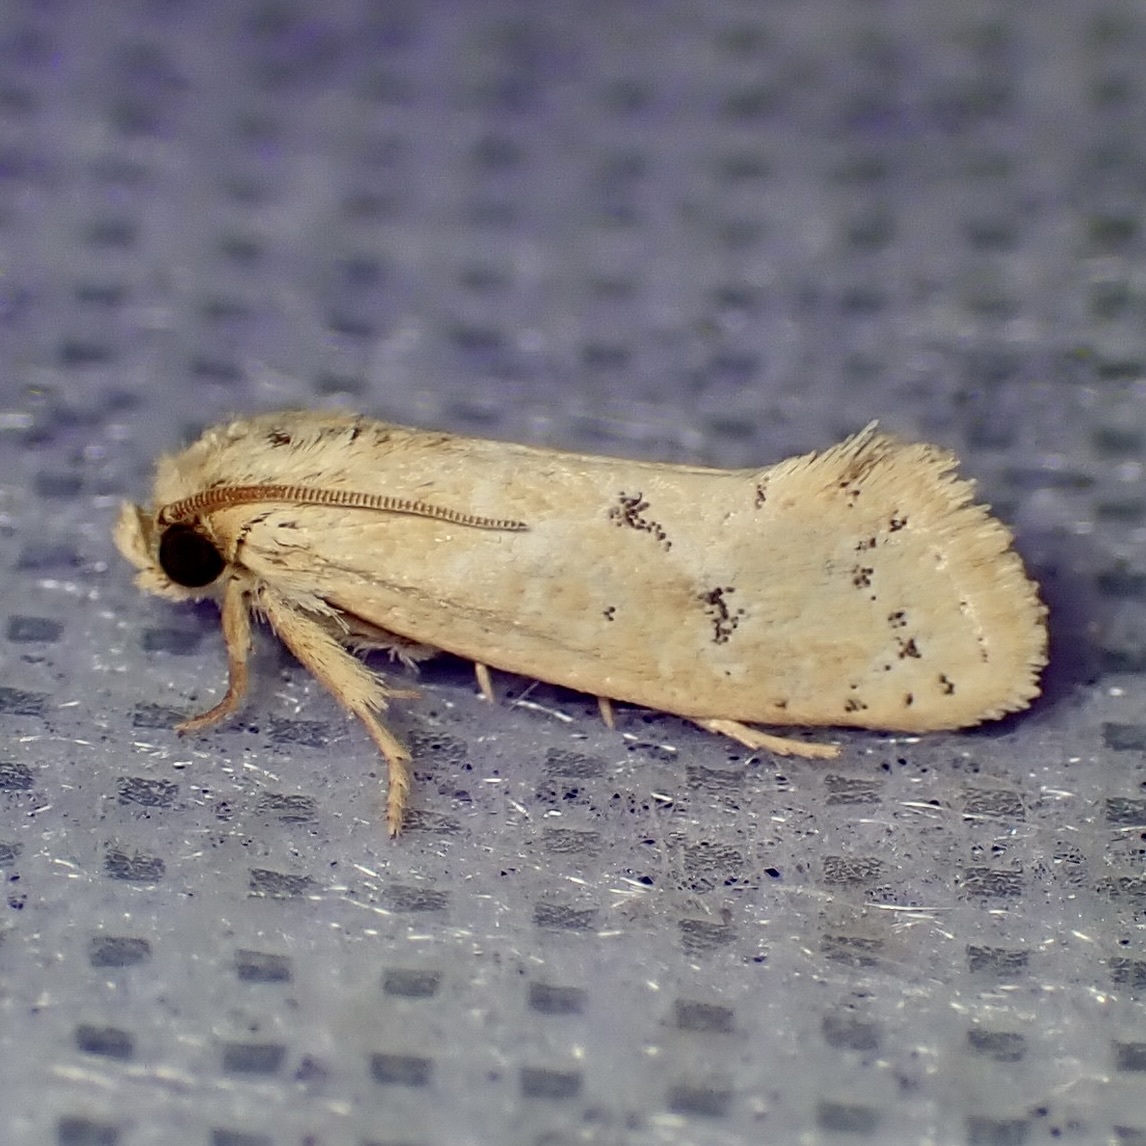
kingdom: Animalia
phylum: Arthropoda
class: Insecta
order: Lepidoptera
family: Tineidae
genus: Acrolophus
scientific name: Acrolophus laticapitana
